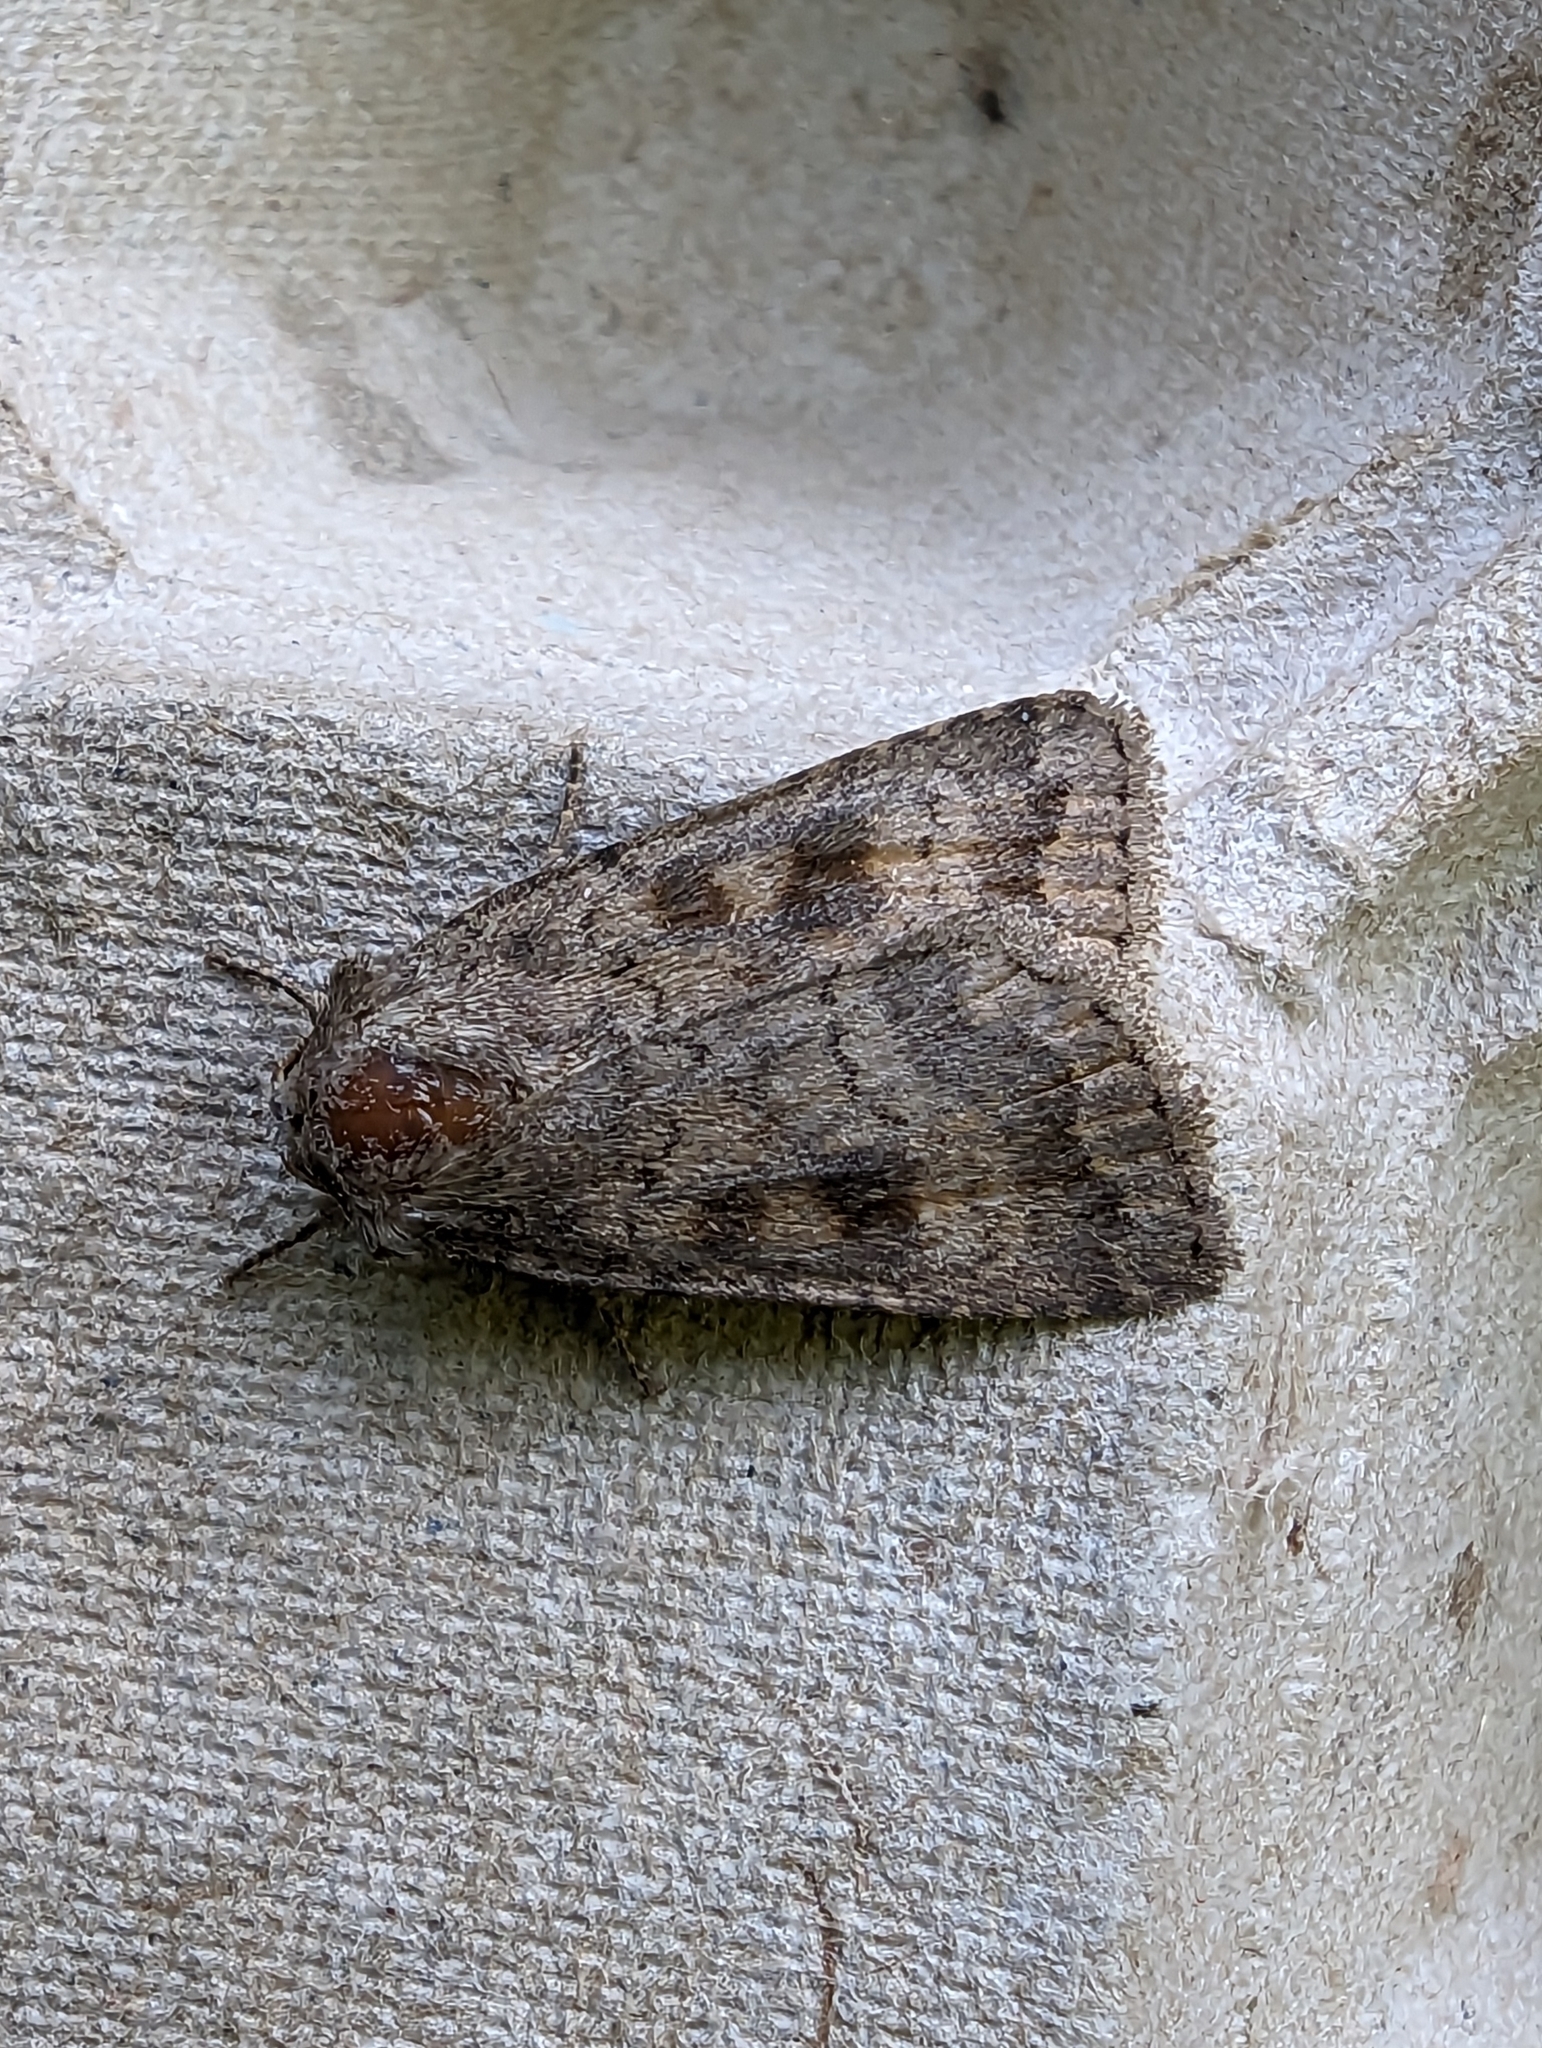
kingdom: Animalia
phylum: Arthropoda
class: Insecta
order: Lepidoptera
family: Noctuidae
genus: Caradrina
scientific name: Caradrina morpheus
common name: Mottled rustic
